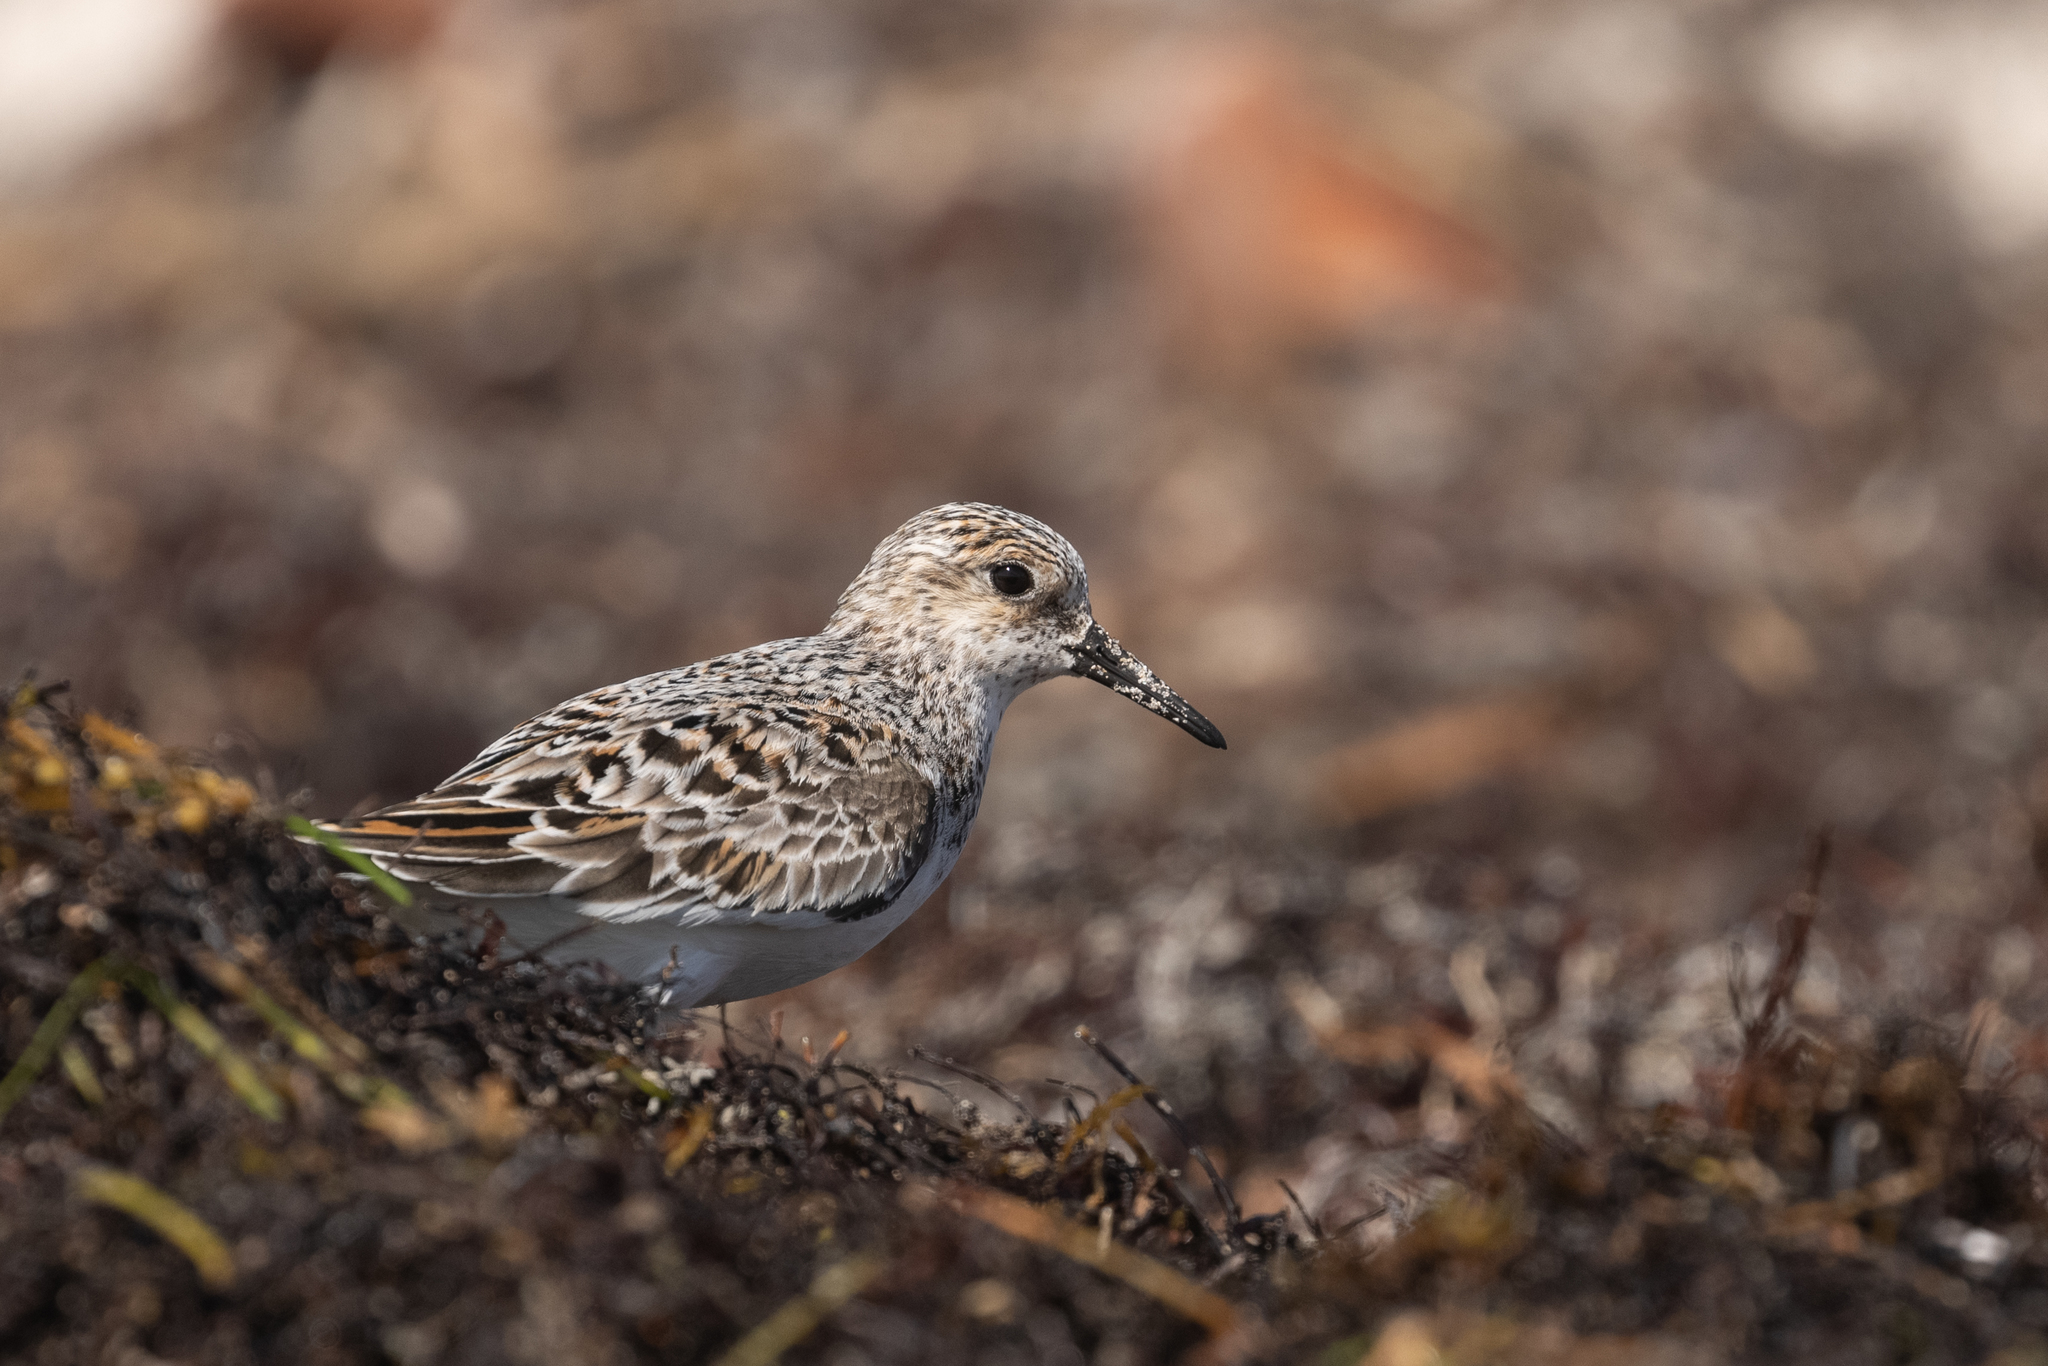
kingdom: Animalia
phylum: Chordata
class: Aves
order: Charadriiformes
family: Scolopacidae
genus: Calidris
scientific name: Calidris alba
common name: Sanderling
